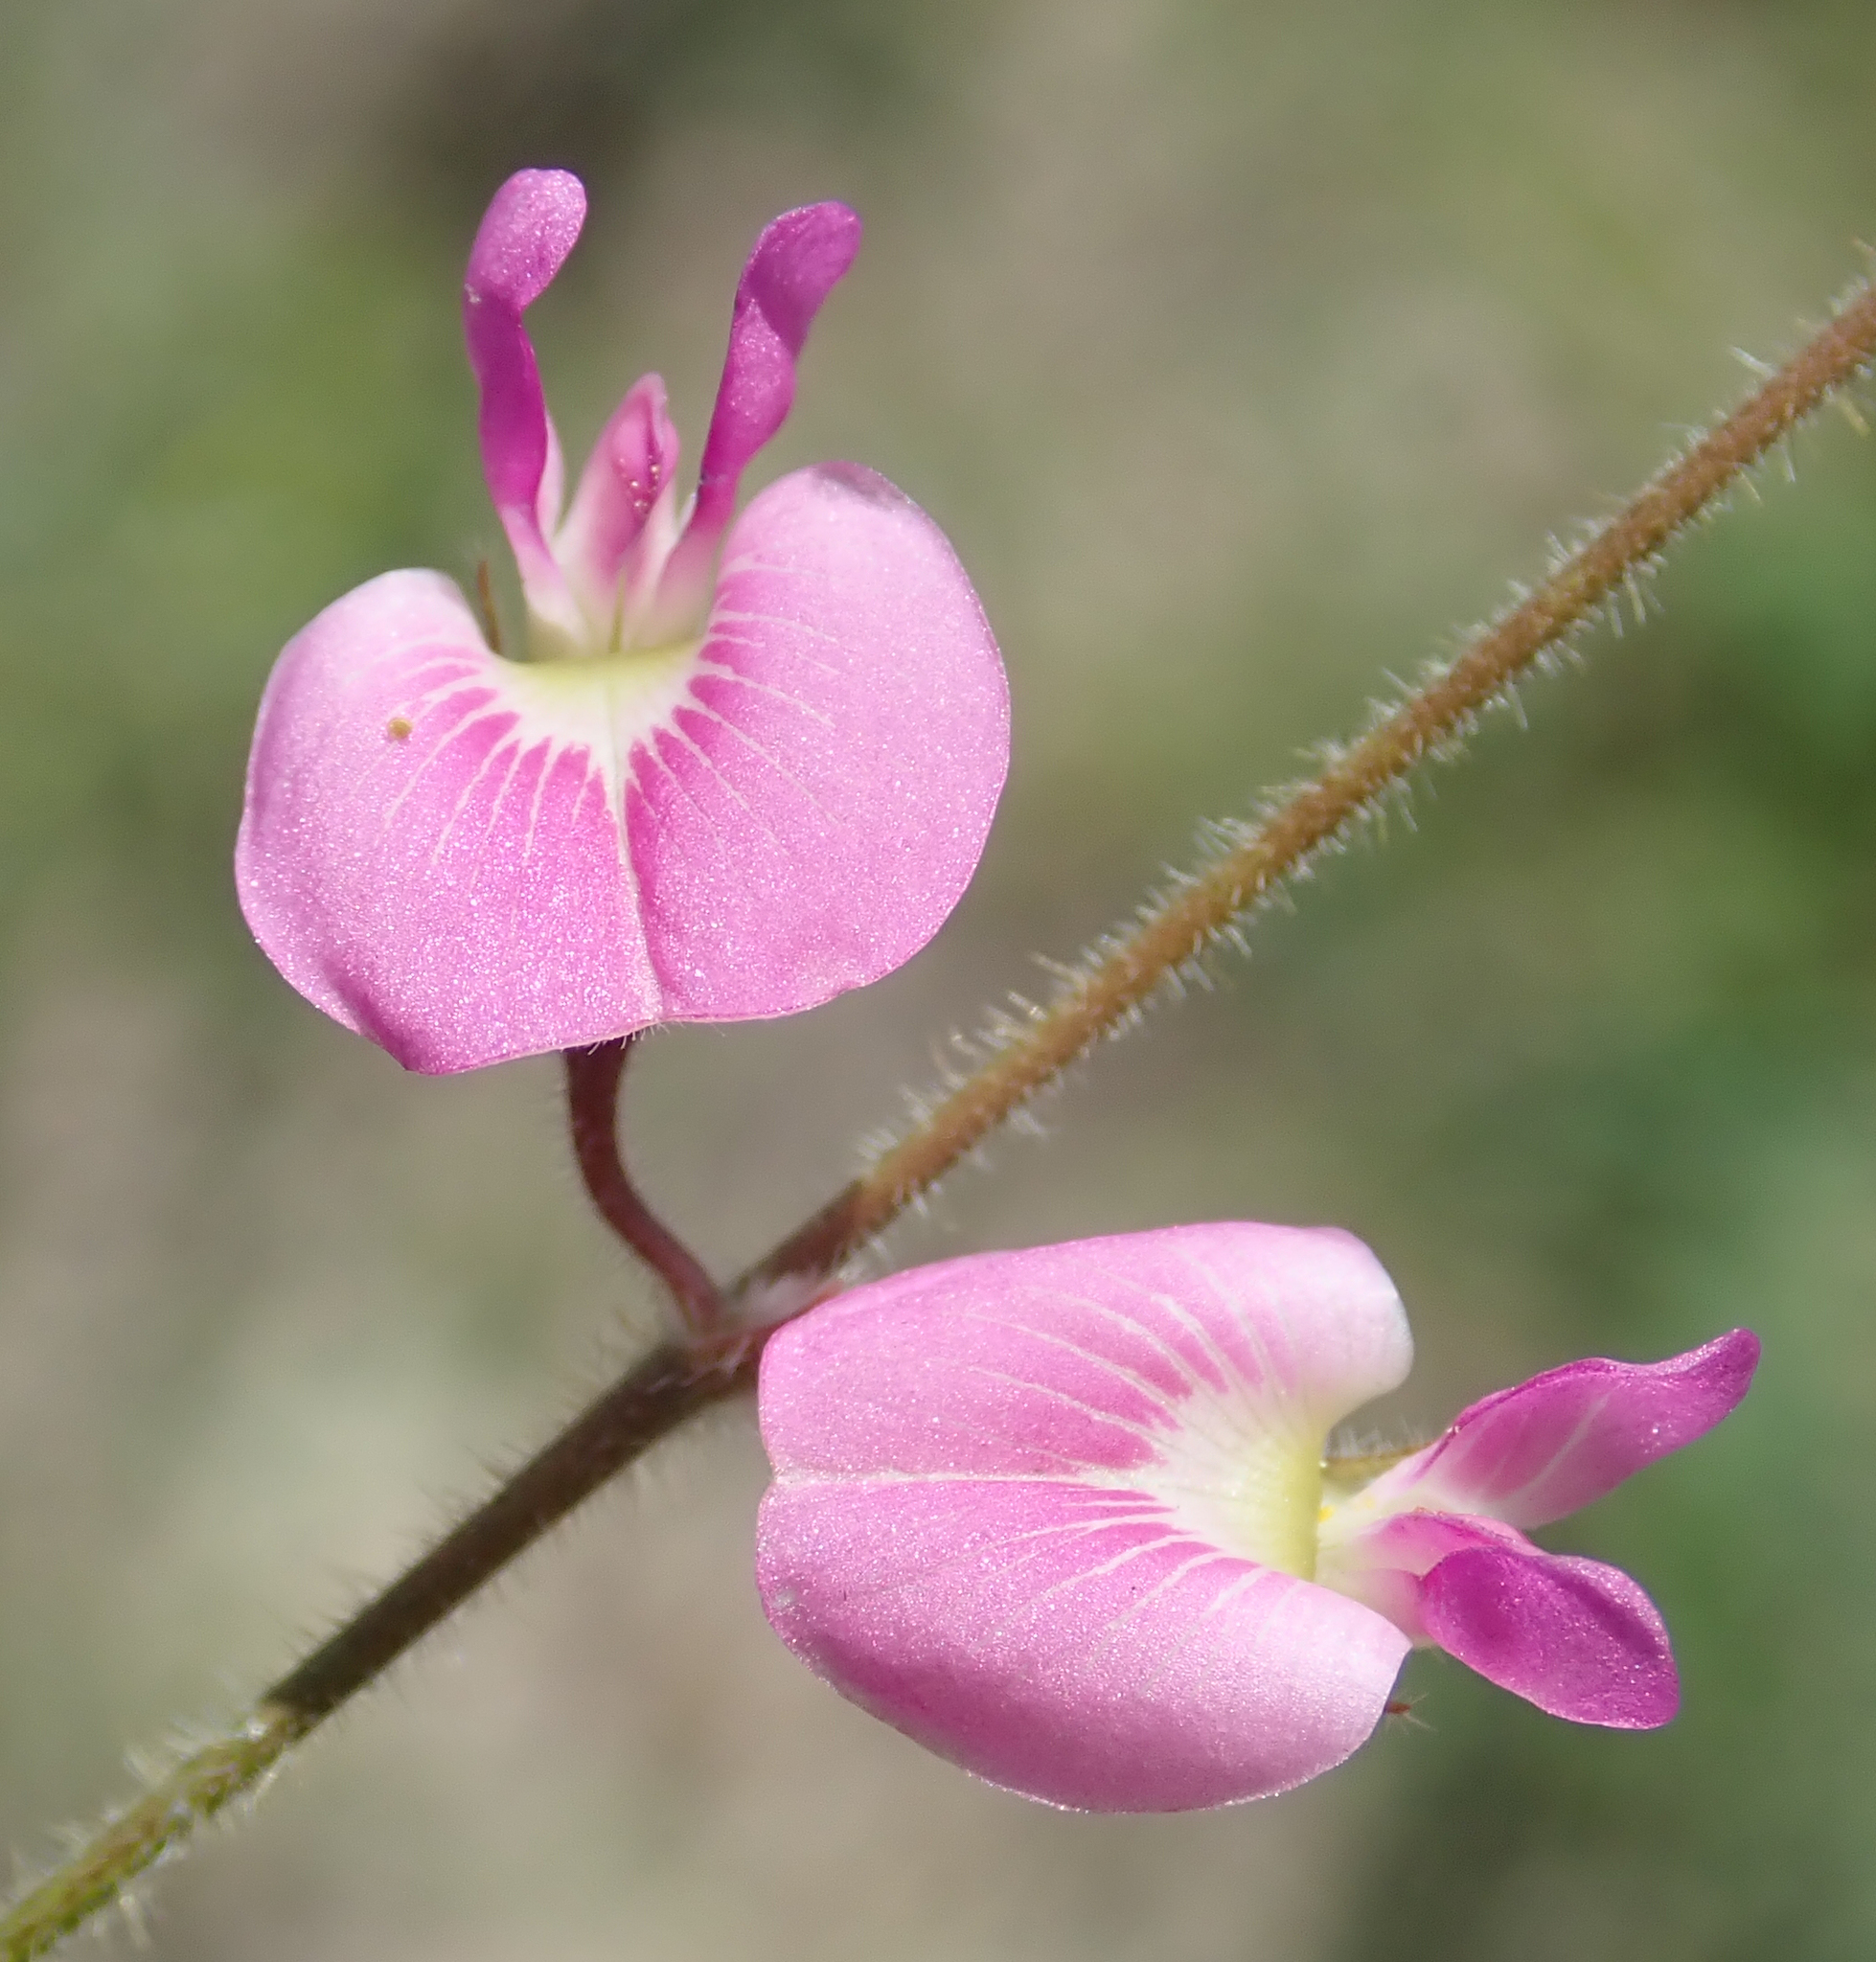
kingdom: Plantae
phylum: Tracheophyta
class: Magnoliopsida
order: Fabales
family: Fabaceae
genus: Tephrosia
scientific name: Tephrosia lupinifolia
